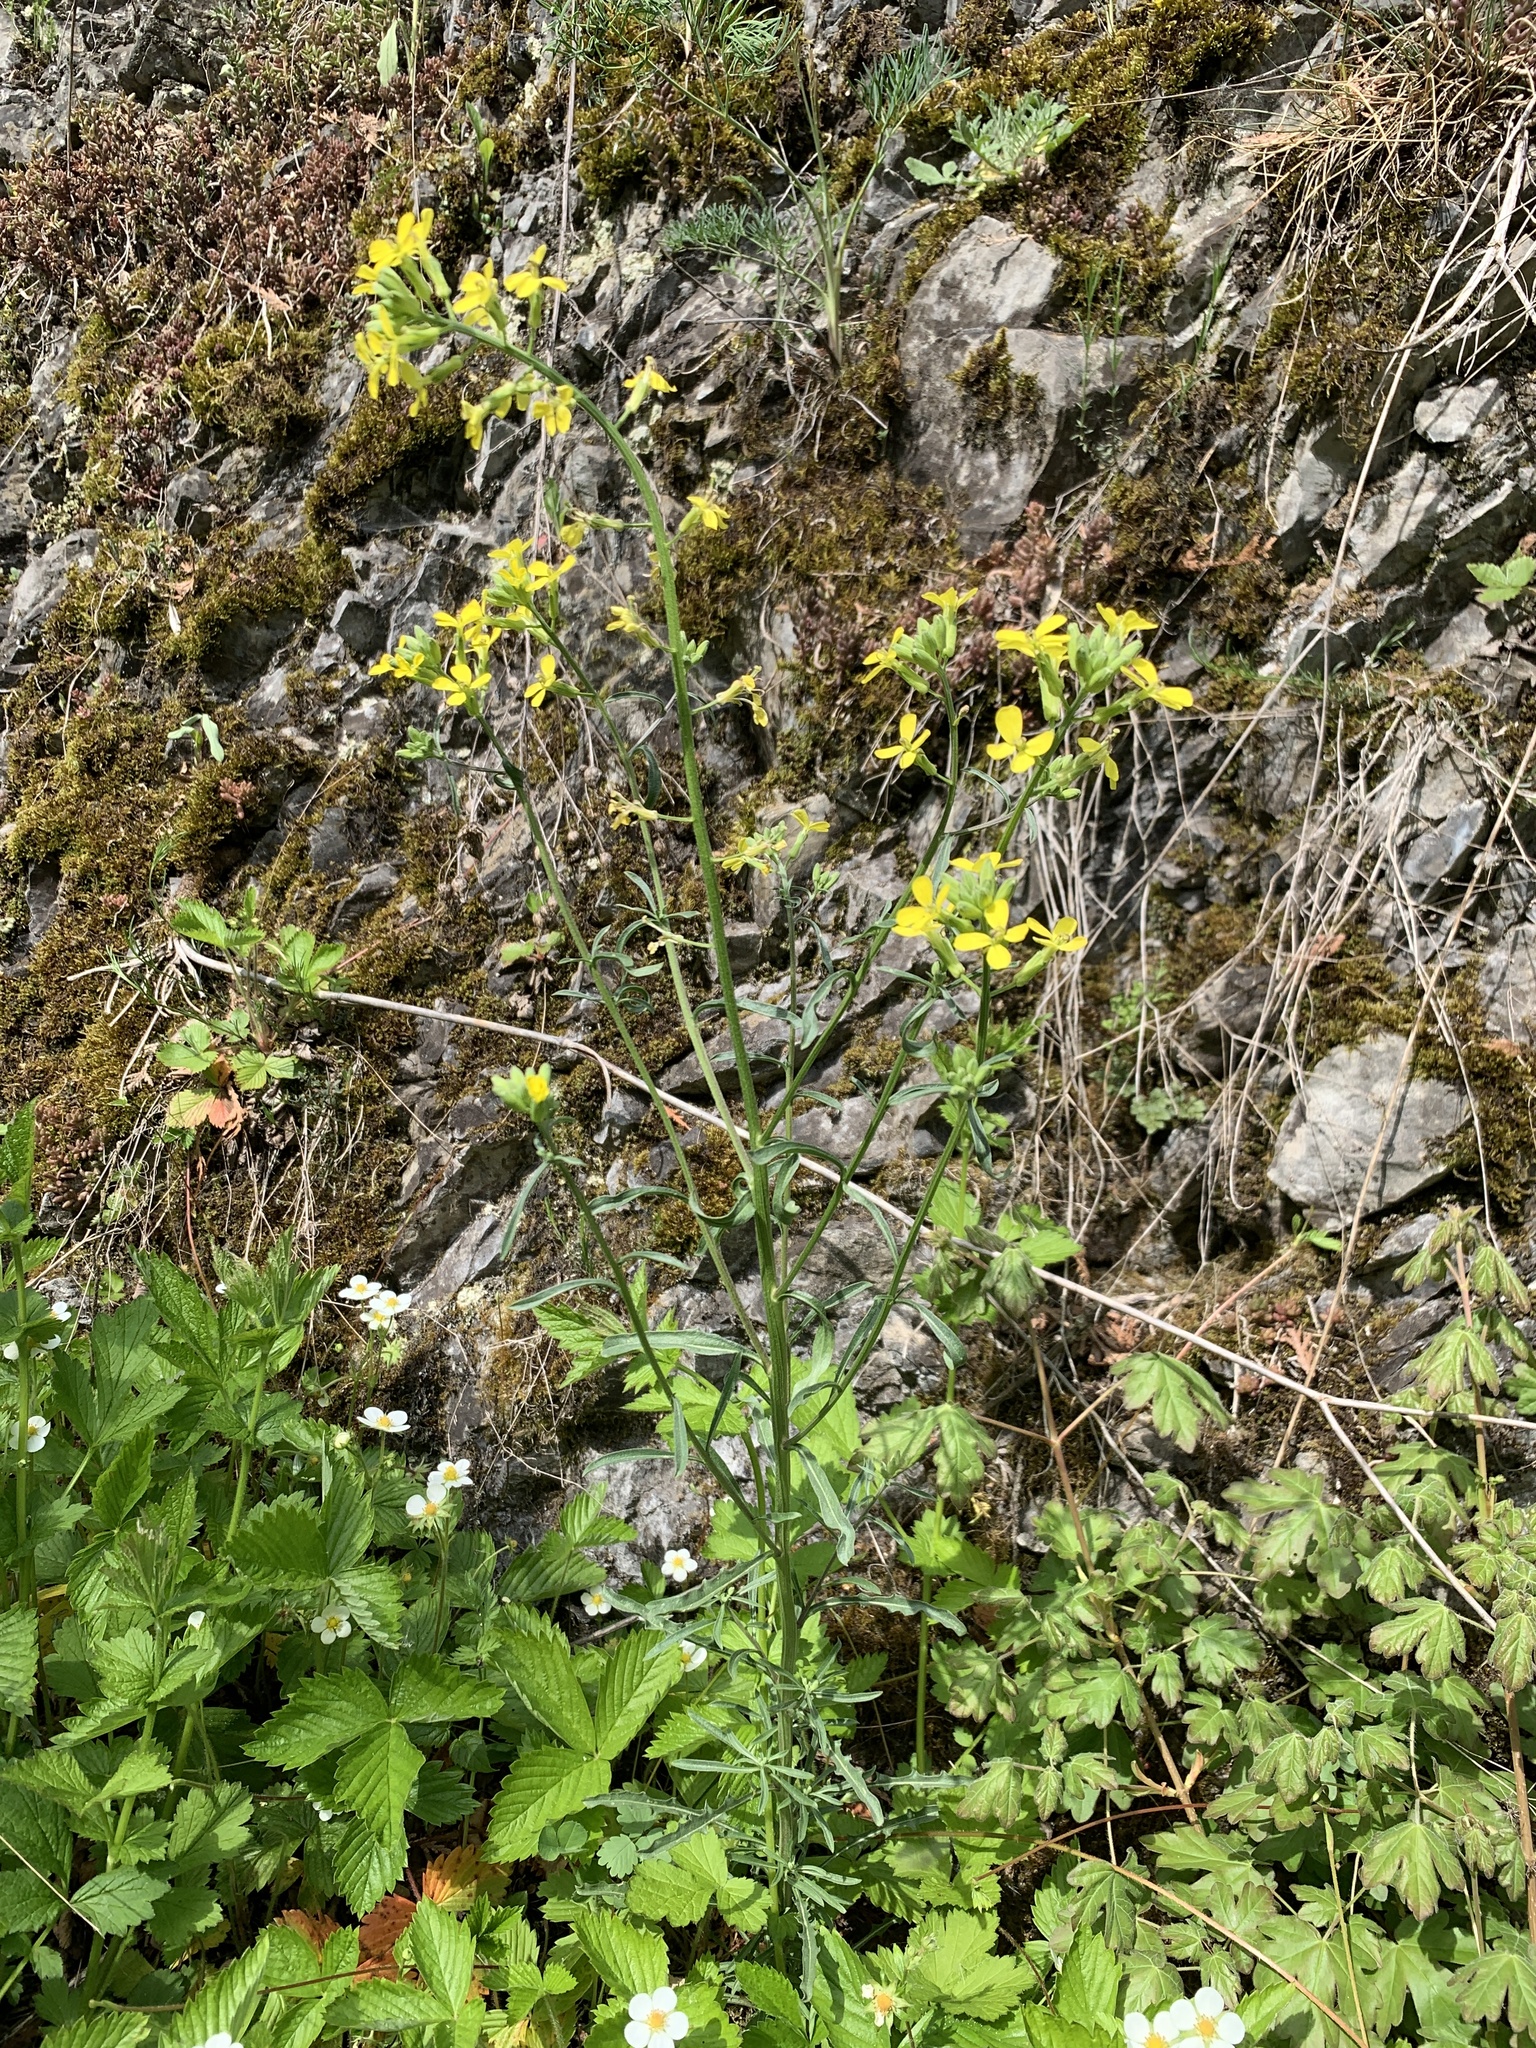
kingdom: Plantae
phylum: Tracheophyta
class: Magnoliopsida
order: Brassicales
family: Brassicaceae
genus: Erysimum
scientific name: Erysimum crepidifolium
